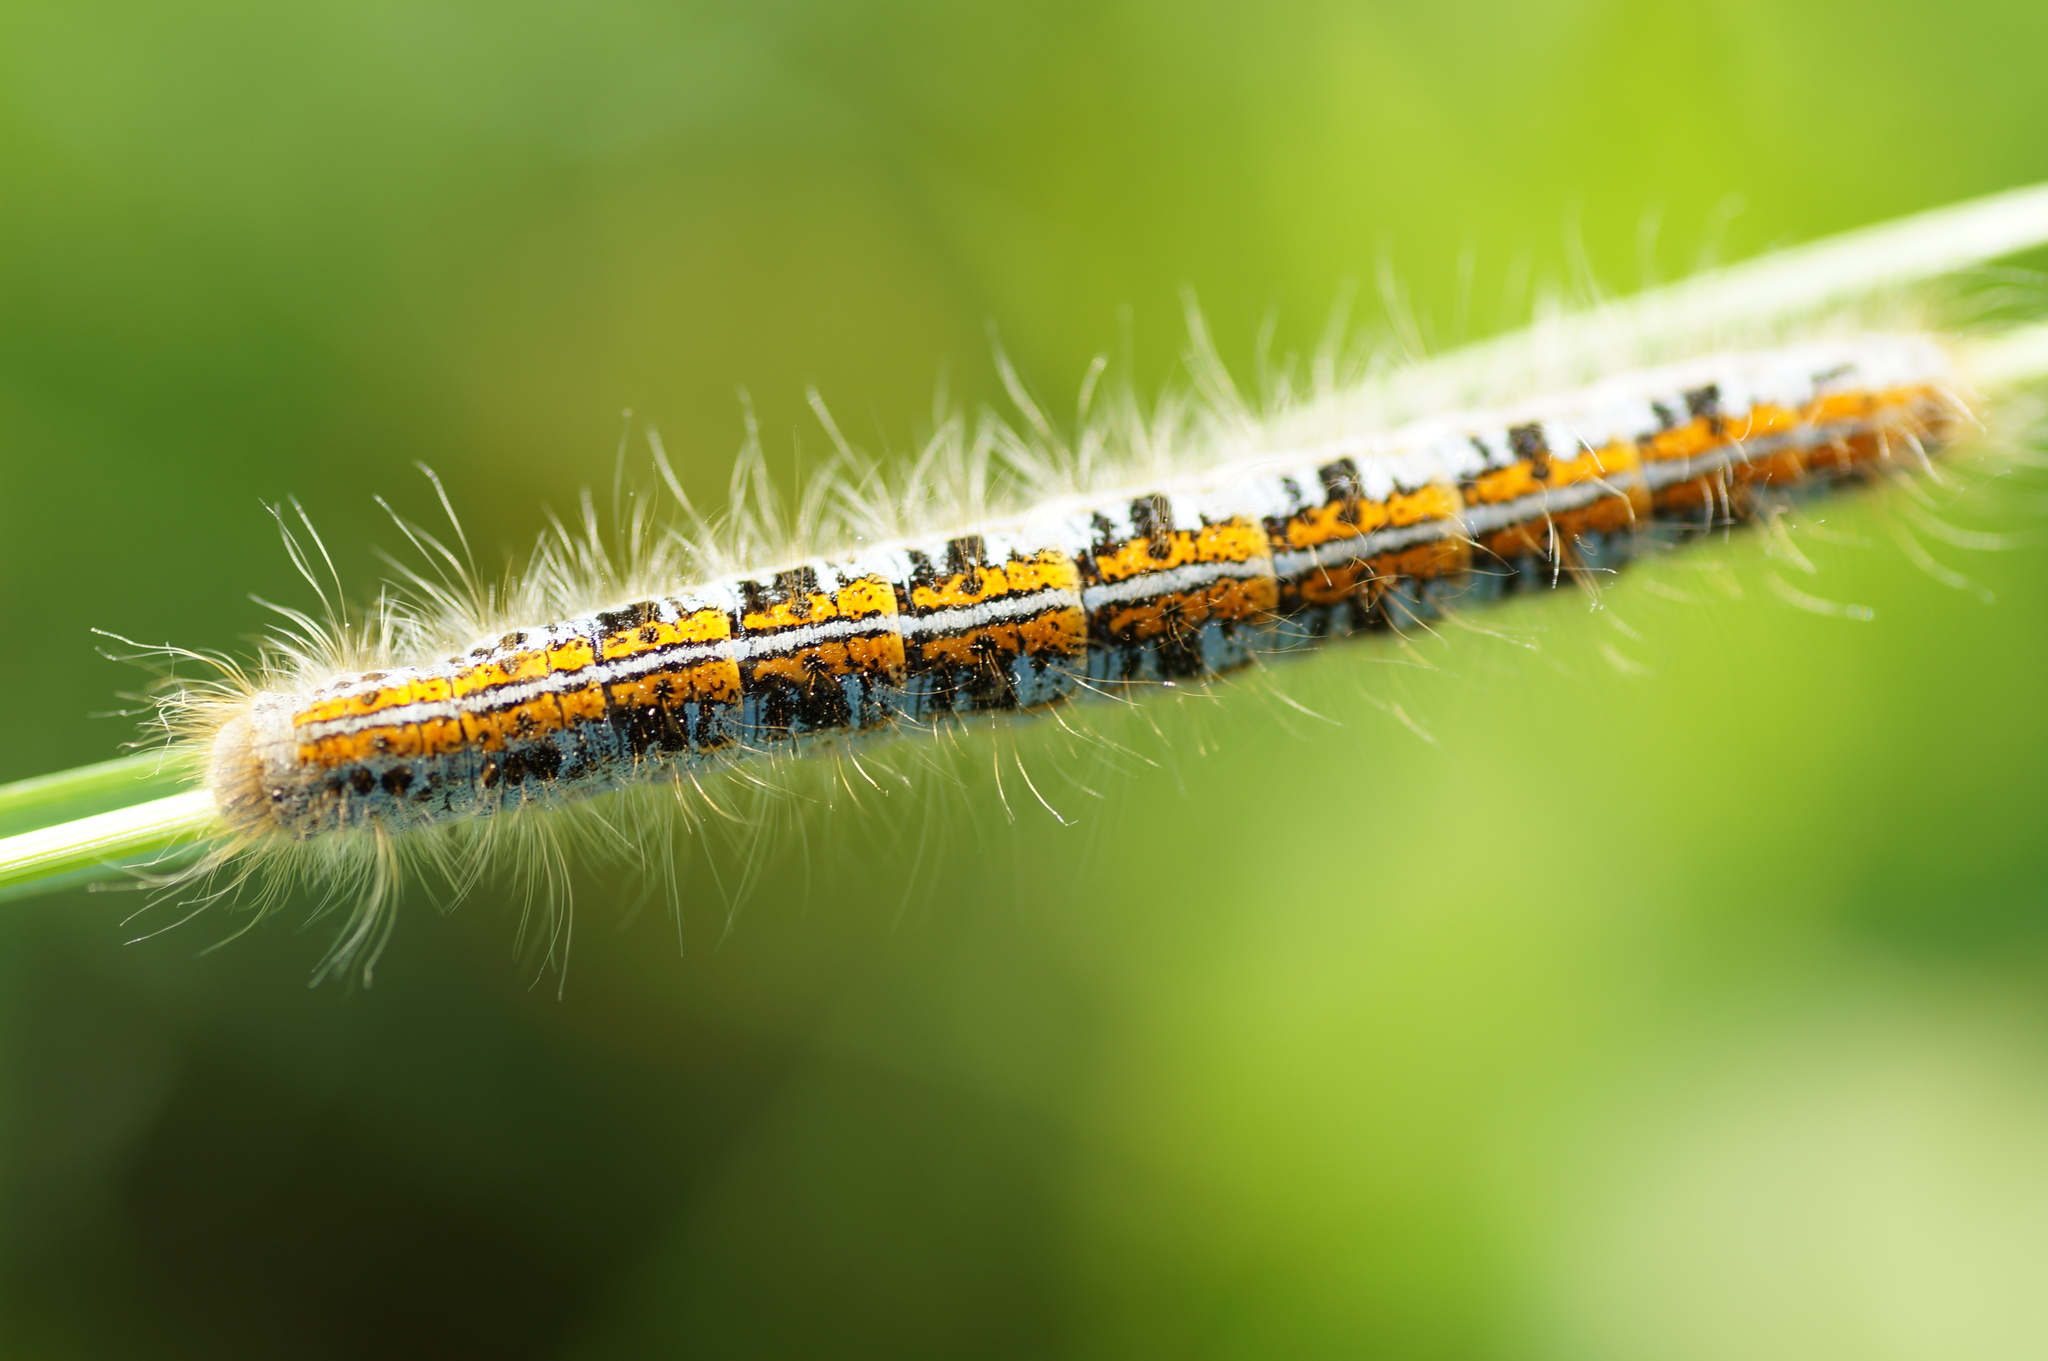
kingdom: Animalia
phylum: Arthropoda
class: Insecta
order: Lepidoptera
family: Lasiocampidae
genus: Malacosoma
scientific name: Malacosoma castrense
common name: Ground lackey
